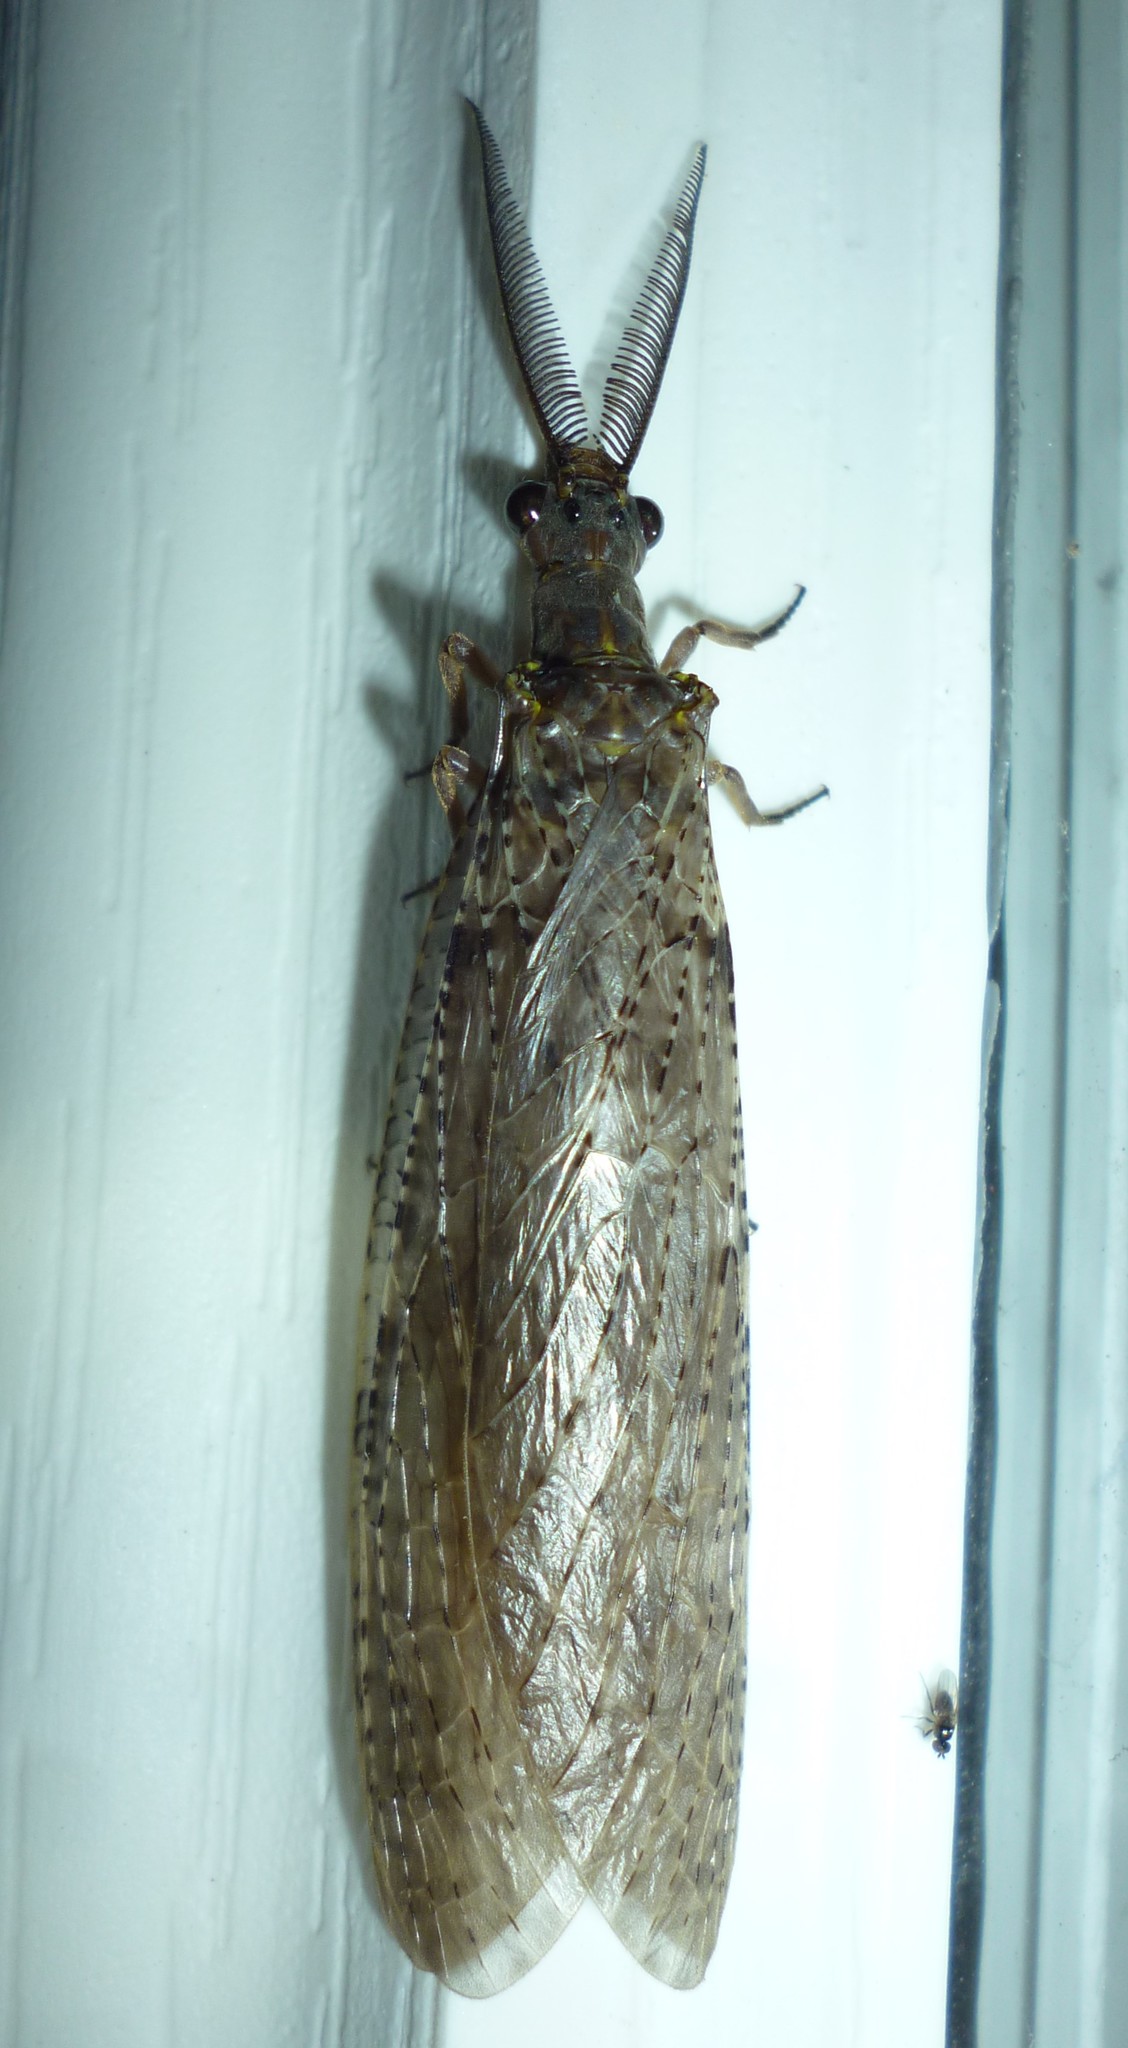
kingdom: Animalia
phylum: Arthropoda
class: Insecta
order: Megaloptera
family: Corydalidae
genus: Chauliodes
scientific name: Chauliodes pectinicornis
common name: Summer fishfly
